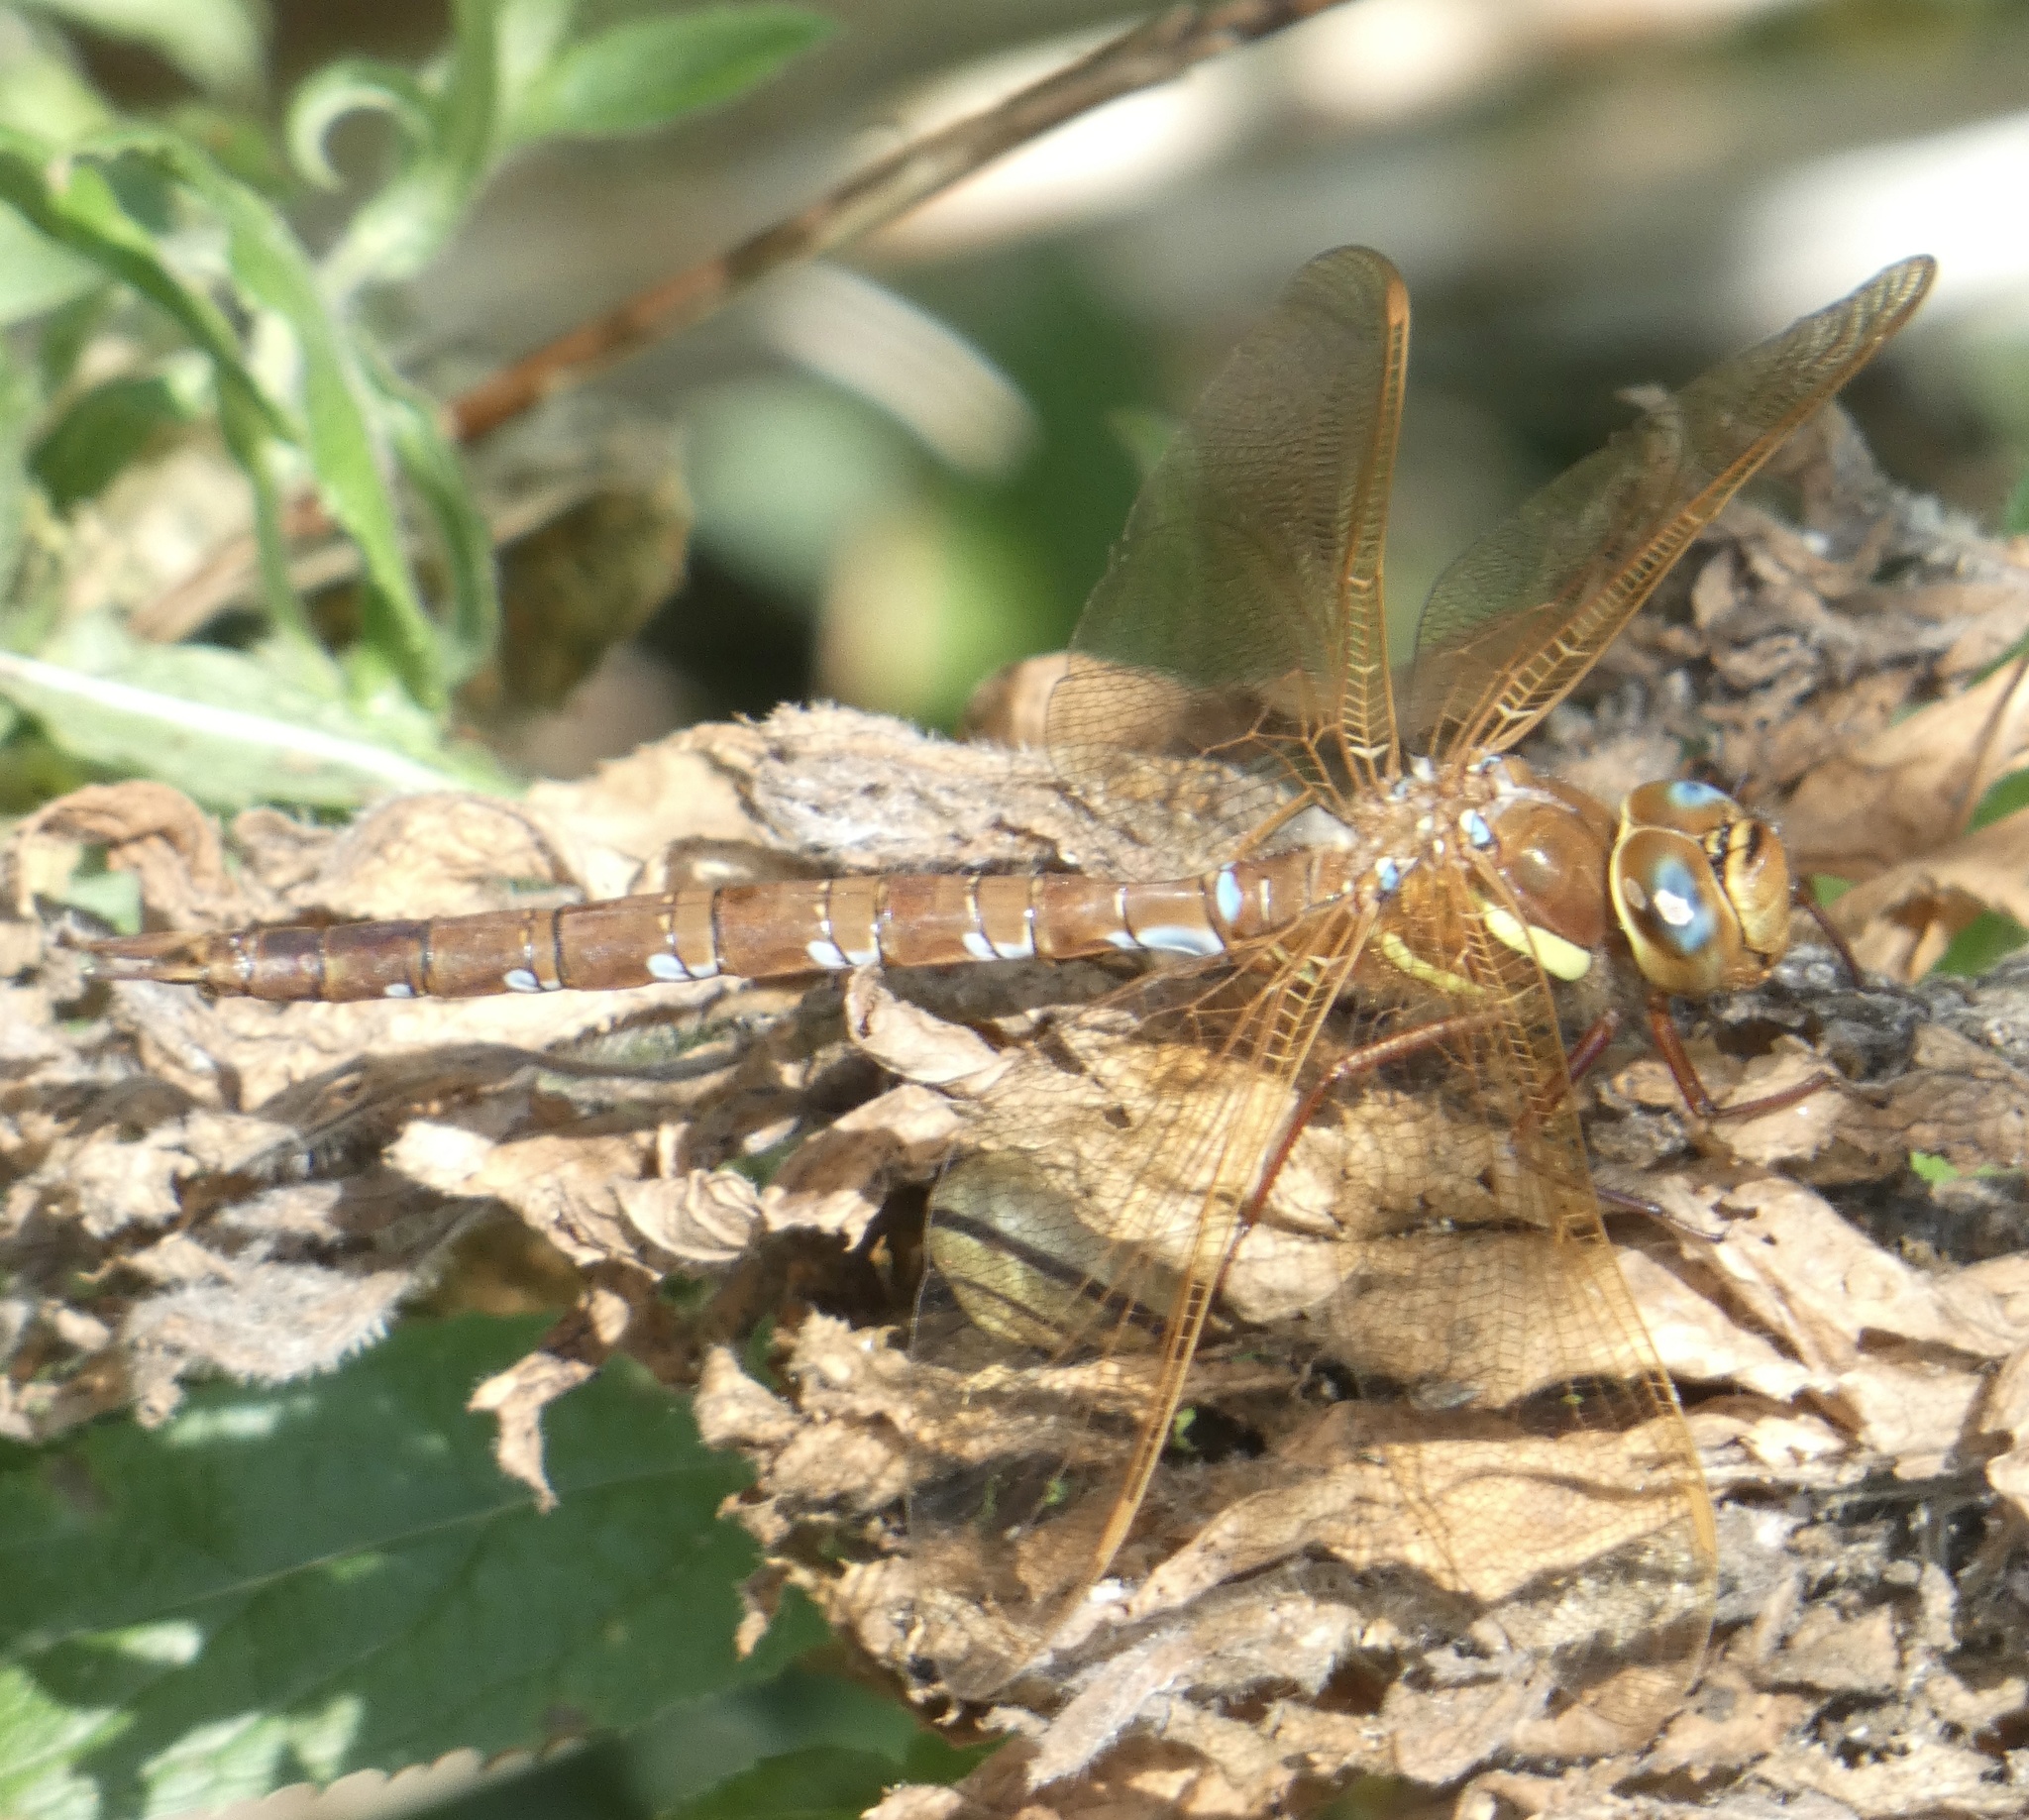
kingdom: Animalia
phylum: Arthropoda
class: Insecta
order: Odonata
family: Aeshnidae
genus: Aeshna
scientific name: Aeshna grandis
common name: Brown hawker
